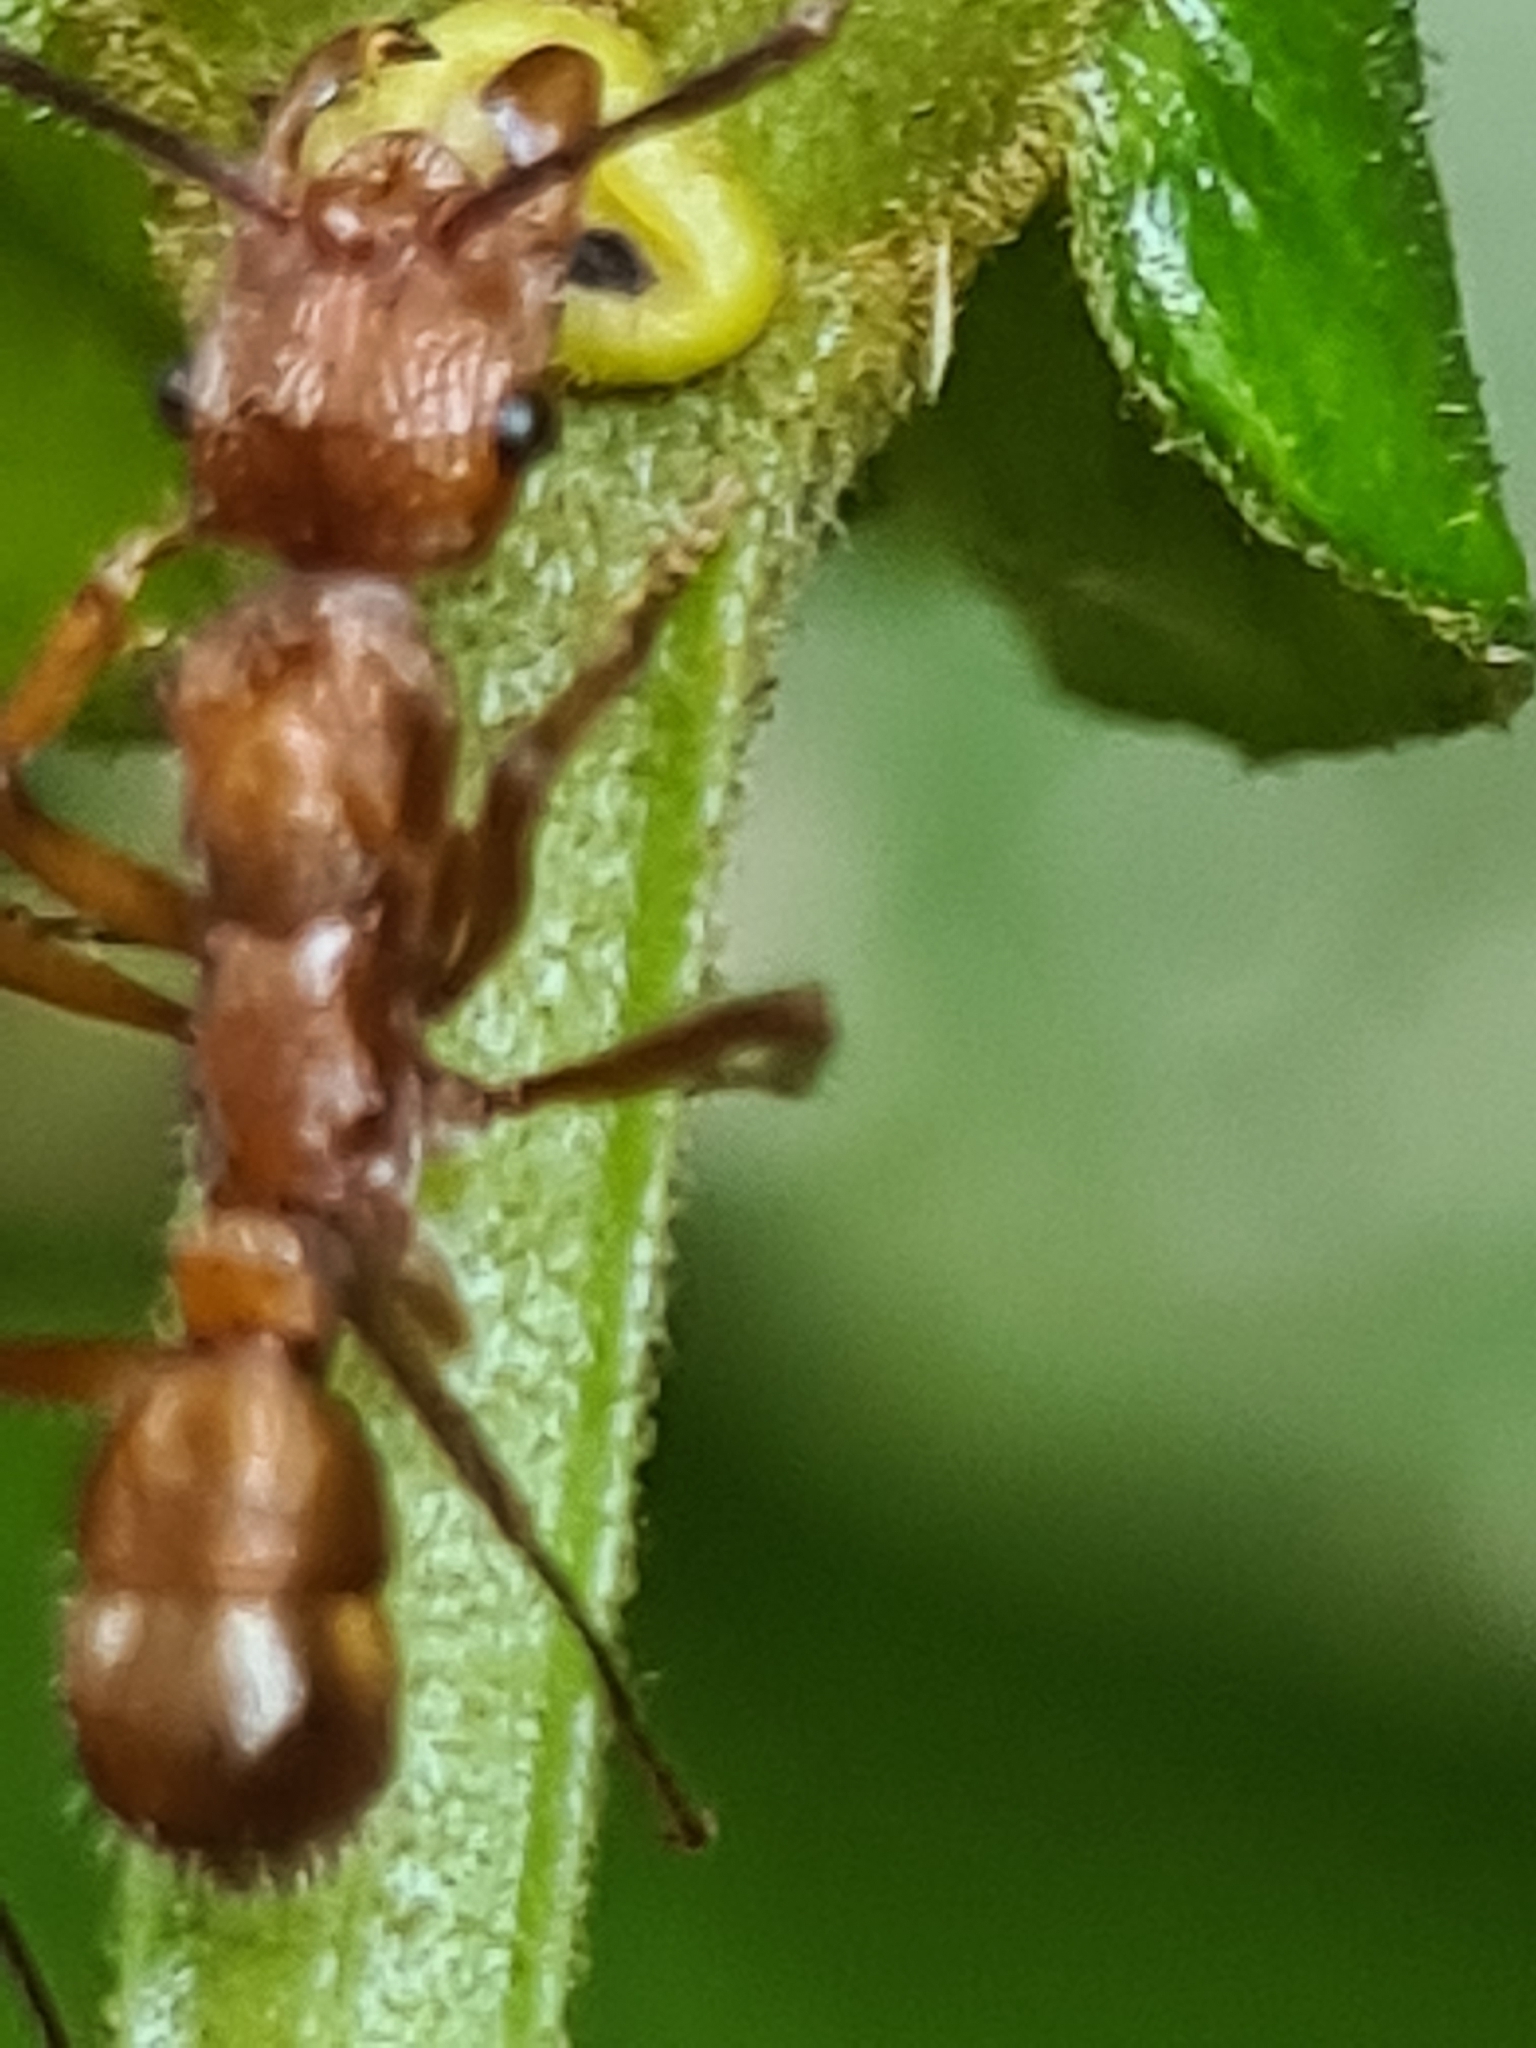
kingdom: Animalia
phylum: Arthropoda
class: Insecta
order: Hymenoptera
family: Formicidae
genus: Ectatomma
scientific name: Ectatomma tuberculatum
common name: Ant
